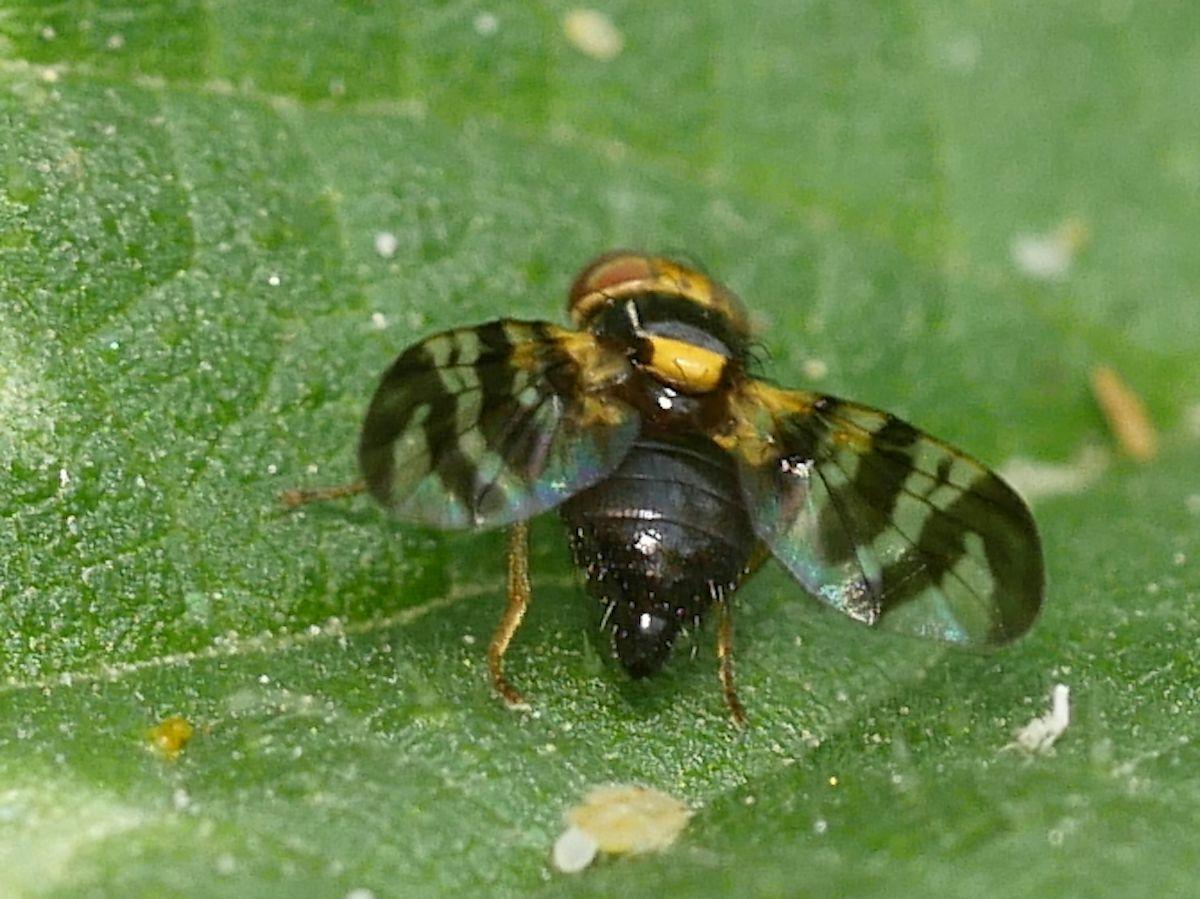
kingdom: Animalia
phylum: Arthropoda
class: Insecta
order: Diptera
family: Tephritidae
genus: Rhagoletis
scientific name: Rhagoletis cerasi
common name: European cherry fruit fly
